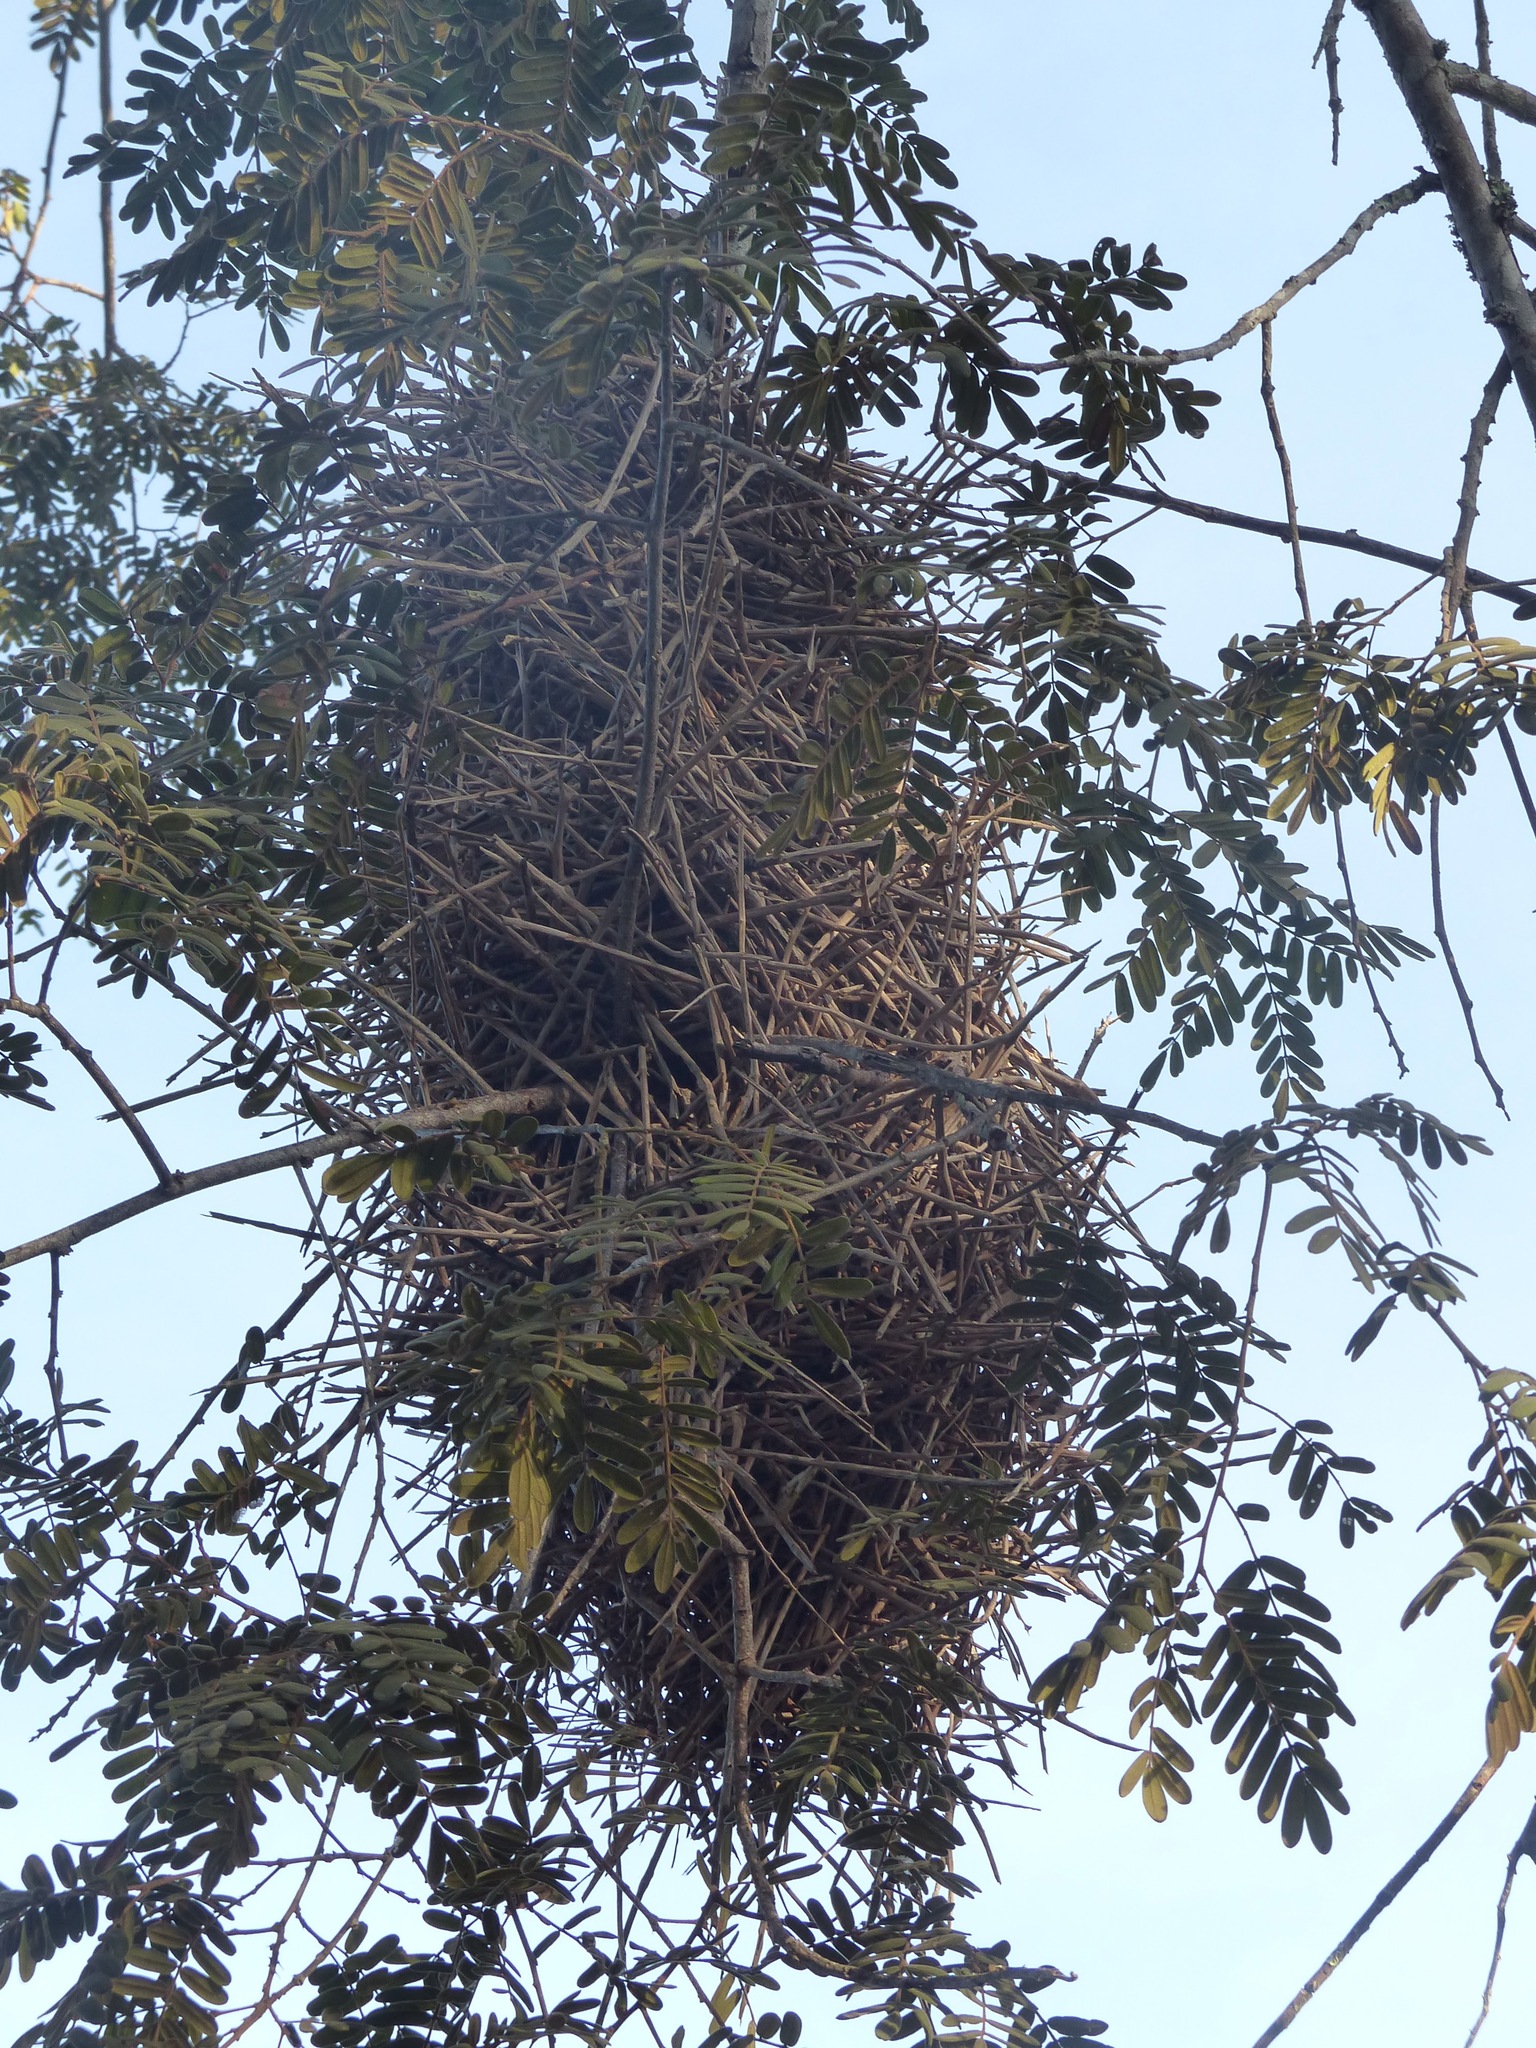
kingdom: Animalia
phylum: Chordata
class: Aves
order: Passeriformes
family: Furnariidae
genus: Phacellodomus
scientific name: Phacellodomus rufifrons
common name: Rufous-fronted thornbird
